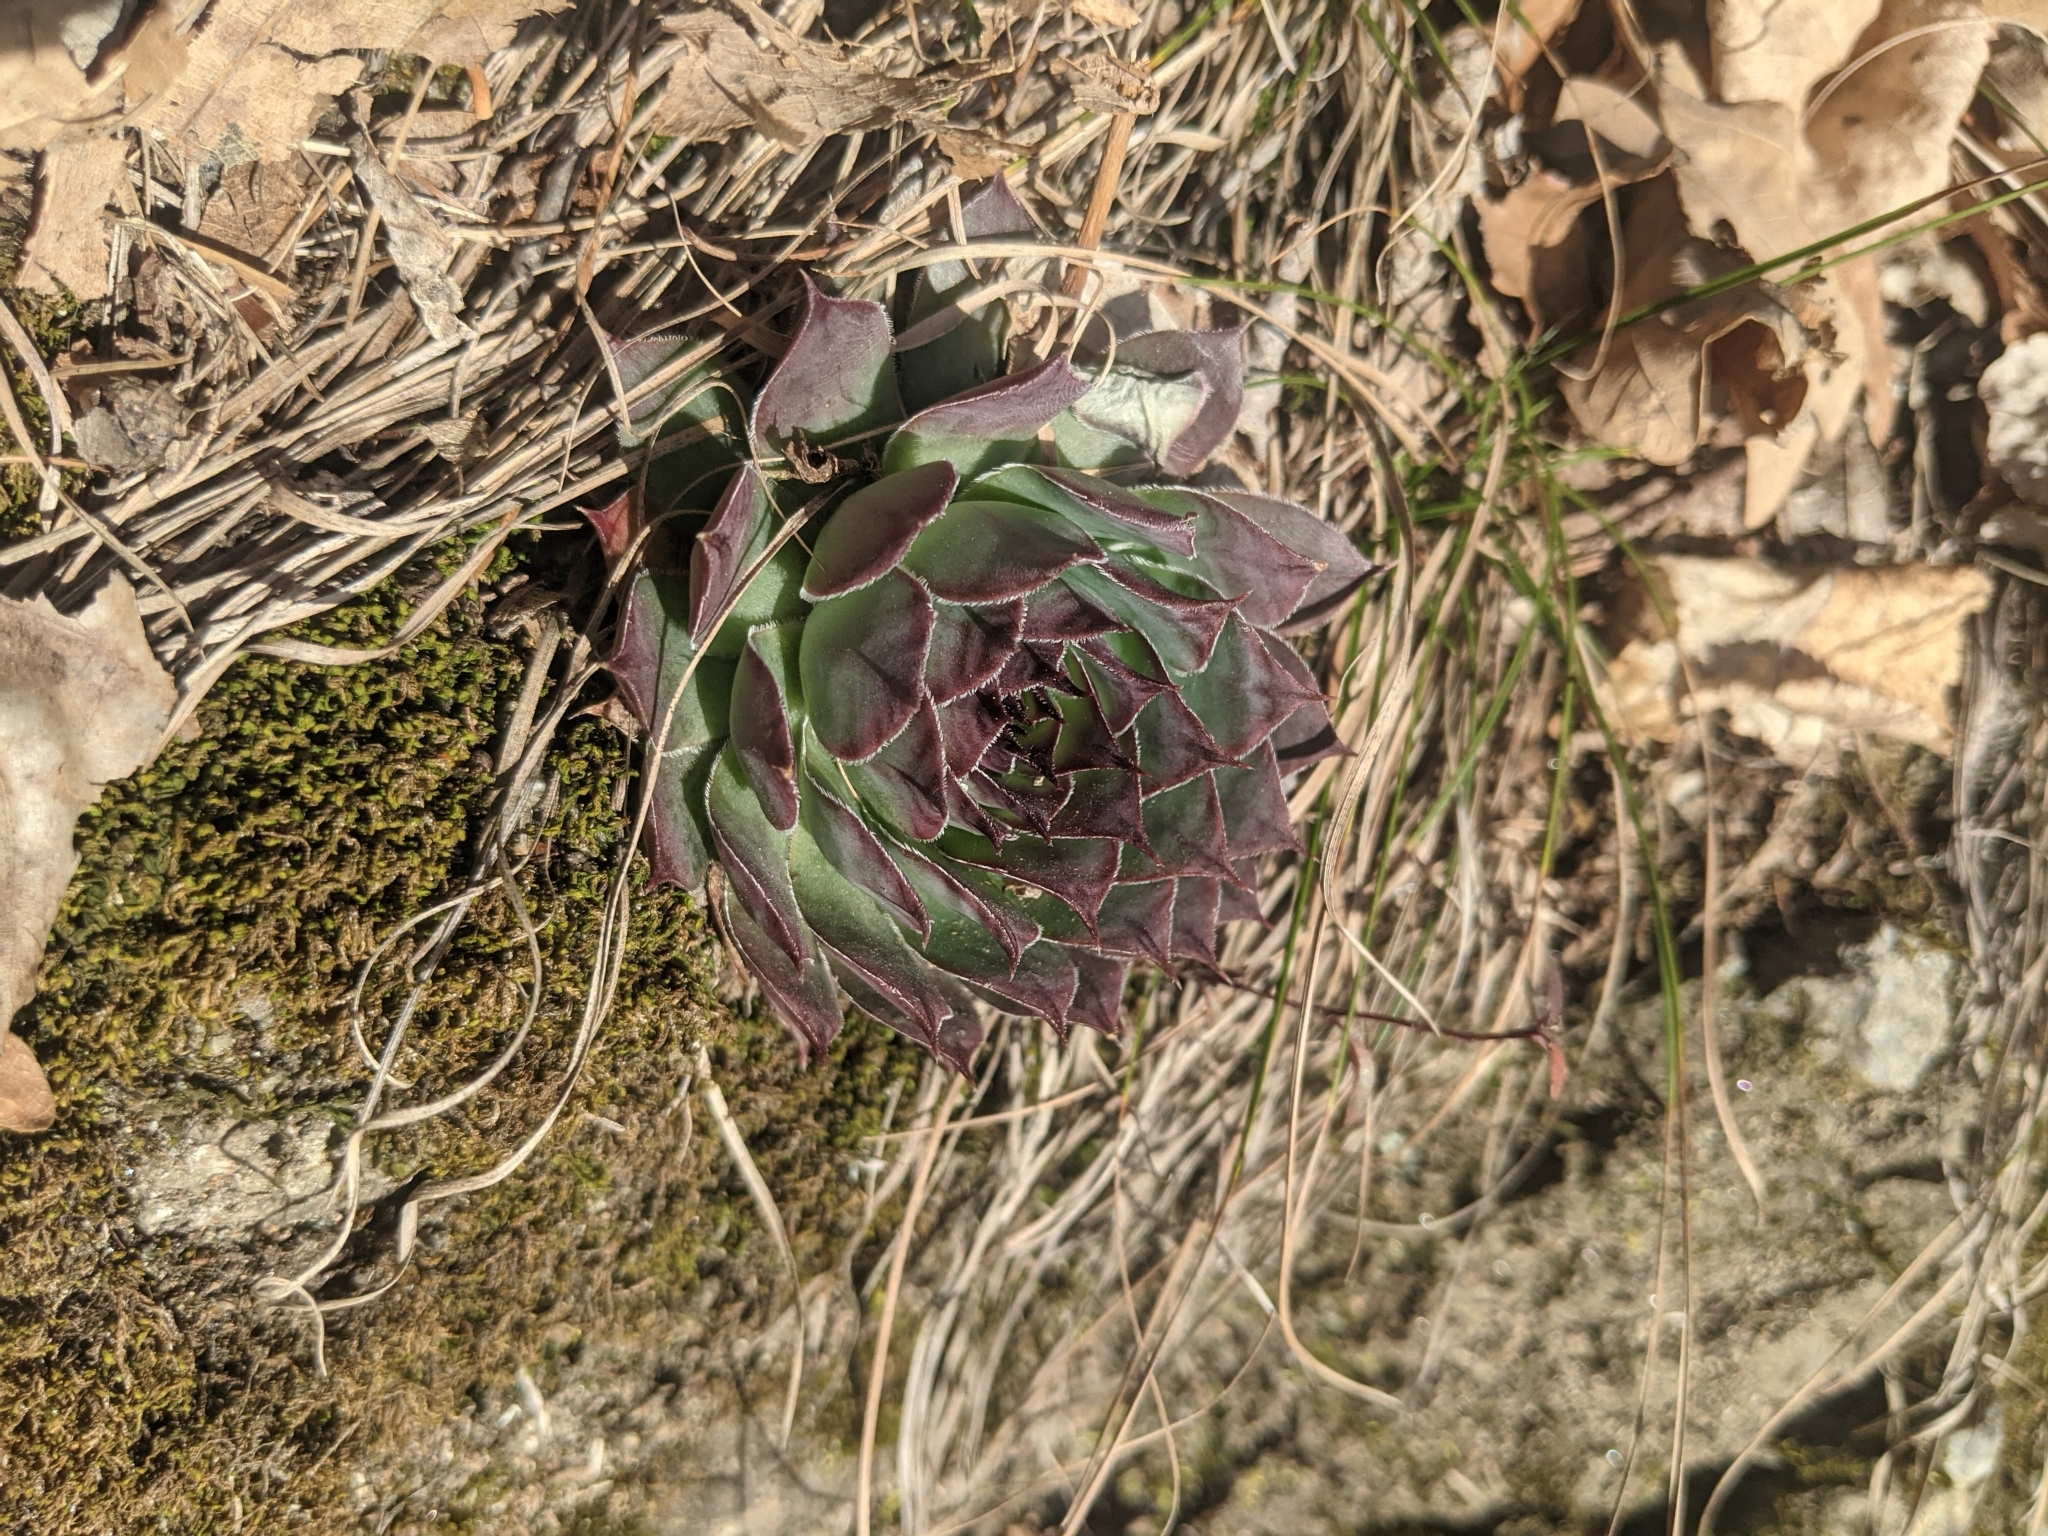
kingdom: Plantae
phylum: Tracheophyta
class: Magnoliopsida
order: Saxifragales
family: Crassulaceae
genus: Sempervivum
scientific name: Sempervivum tectorum
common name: House-leek
